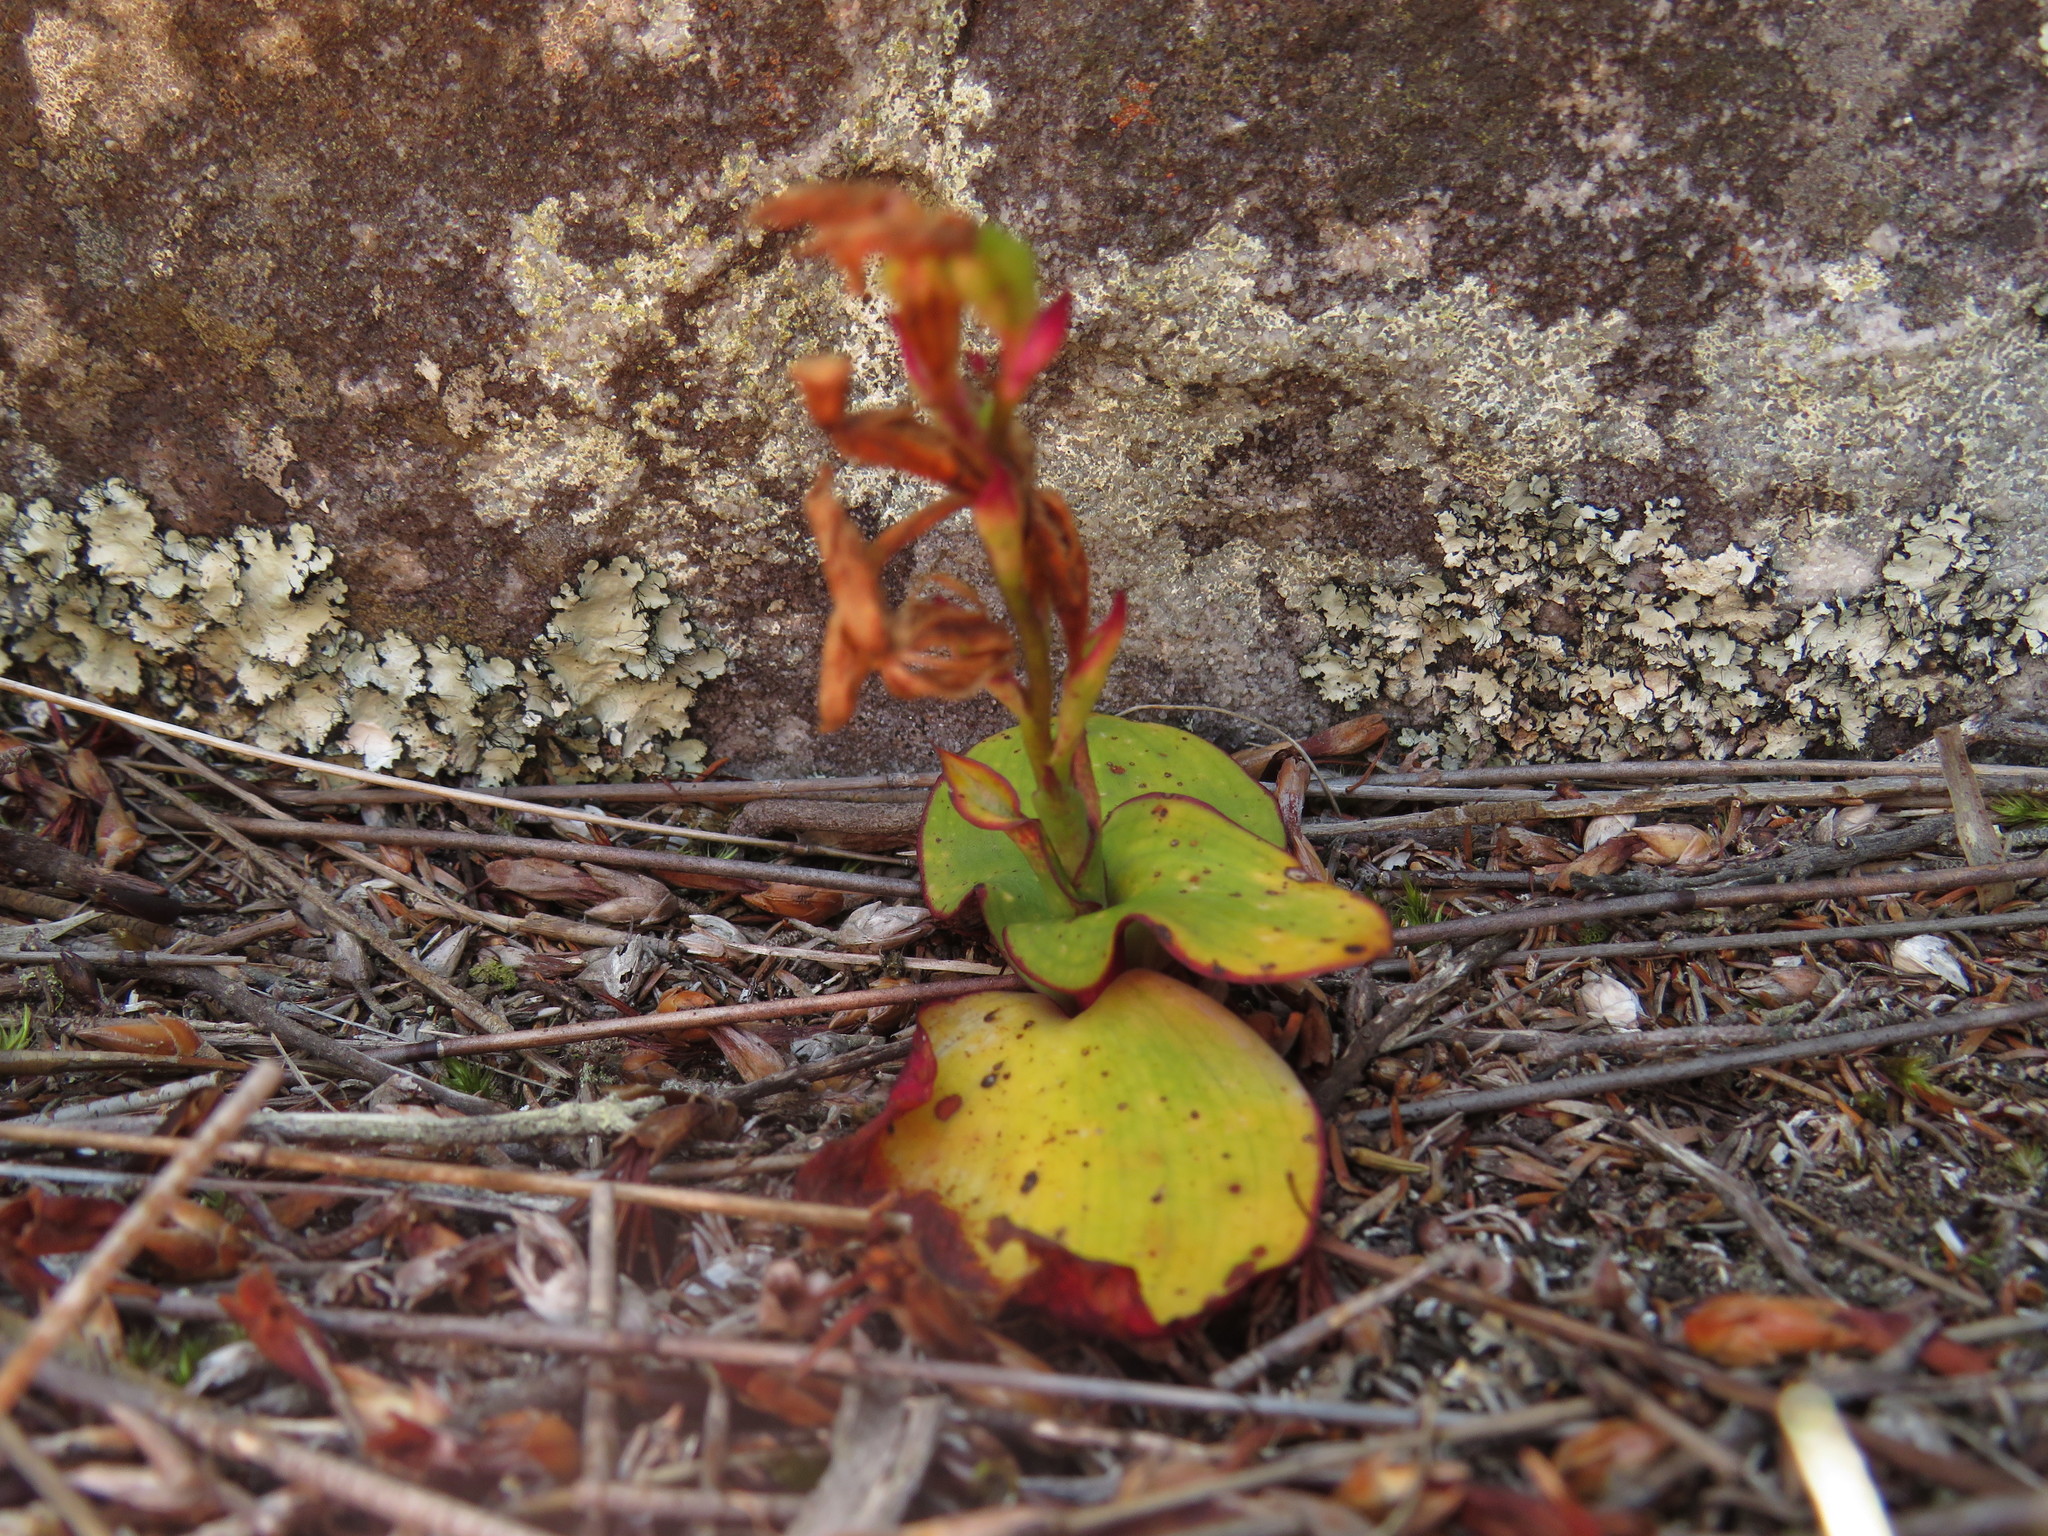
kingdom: Plantae
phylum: Tracheophyta
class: Liliopsida
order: Asparagales
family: Orchidaceae
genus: Disa
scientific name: Disa rosea
